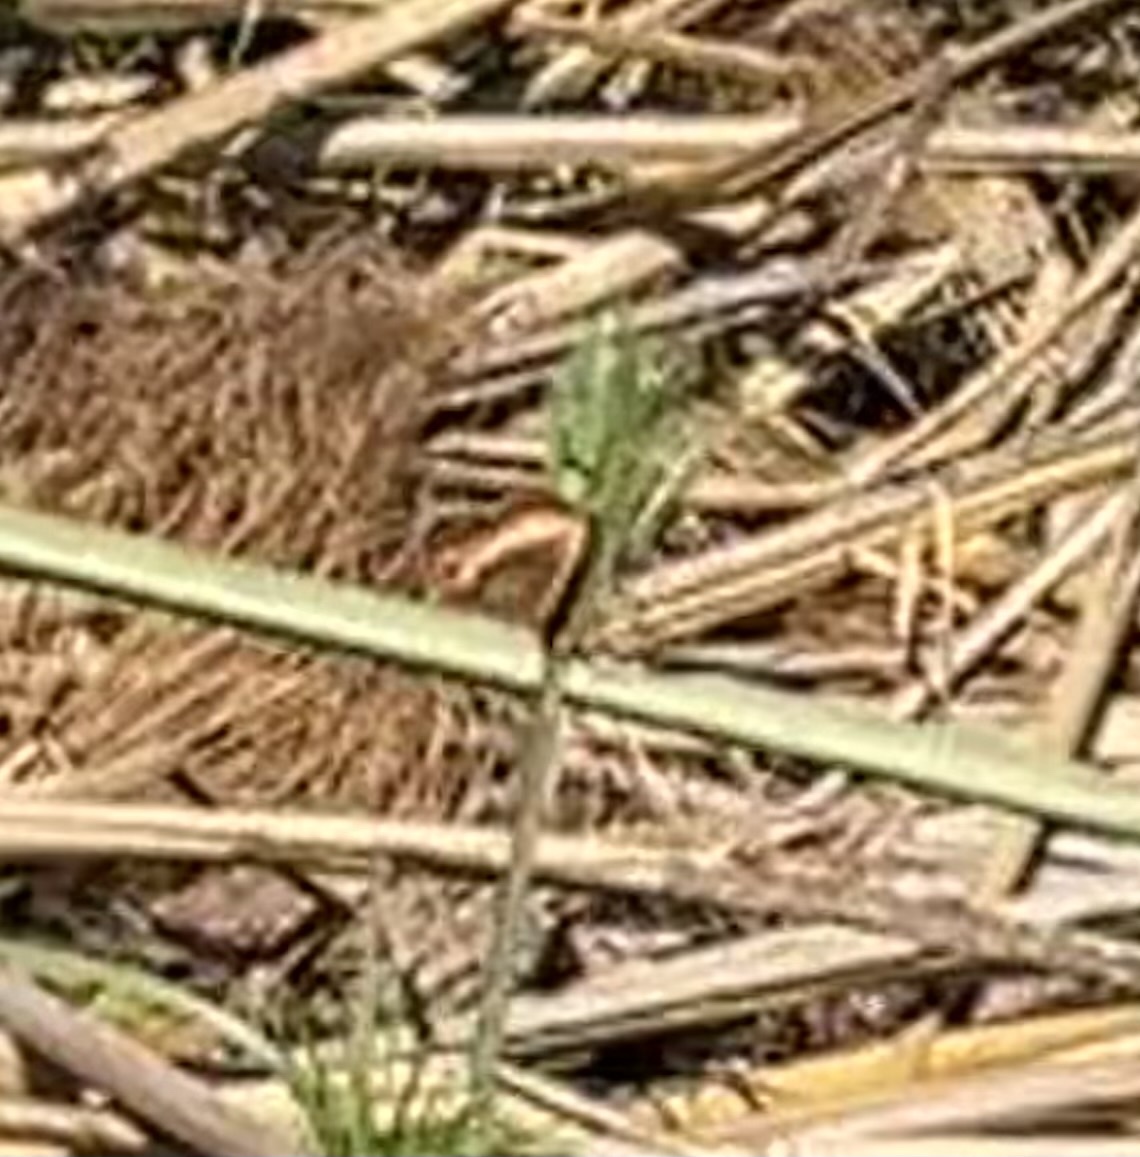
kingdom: Animalia
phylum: Arthropoda
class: Insecta
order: Lepidoptera
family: Nymphalidae
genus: Precis
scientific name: Precis ceryne
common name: Marsh commodore
